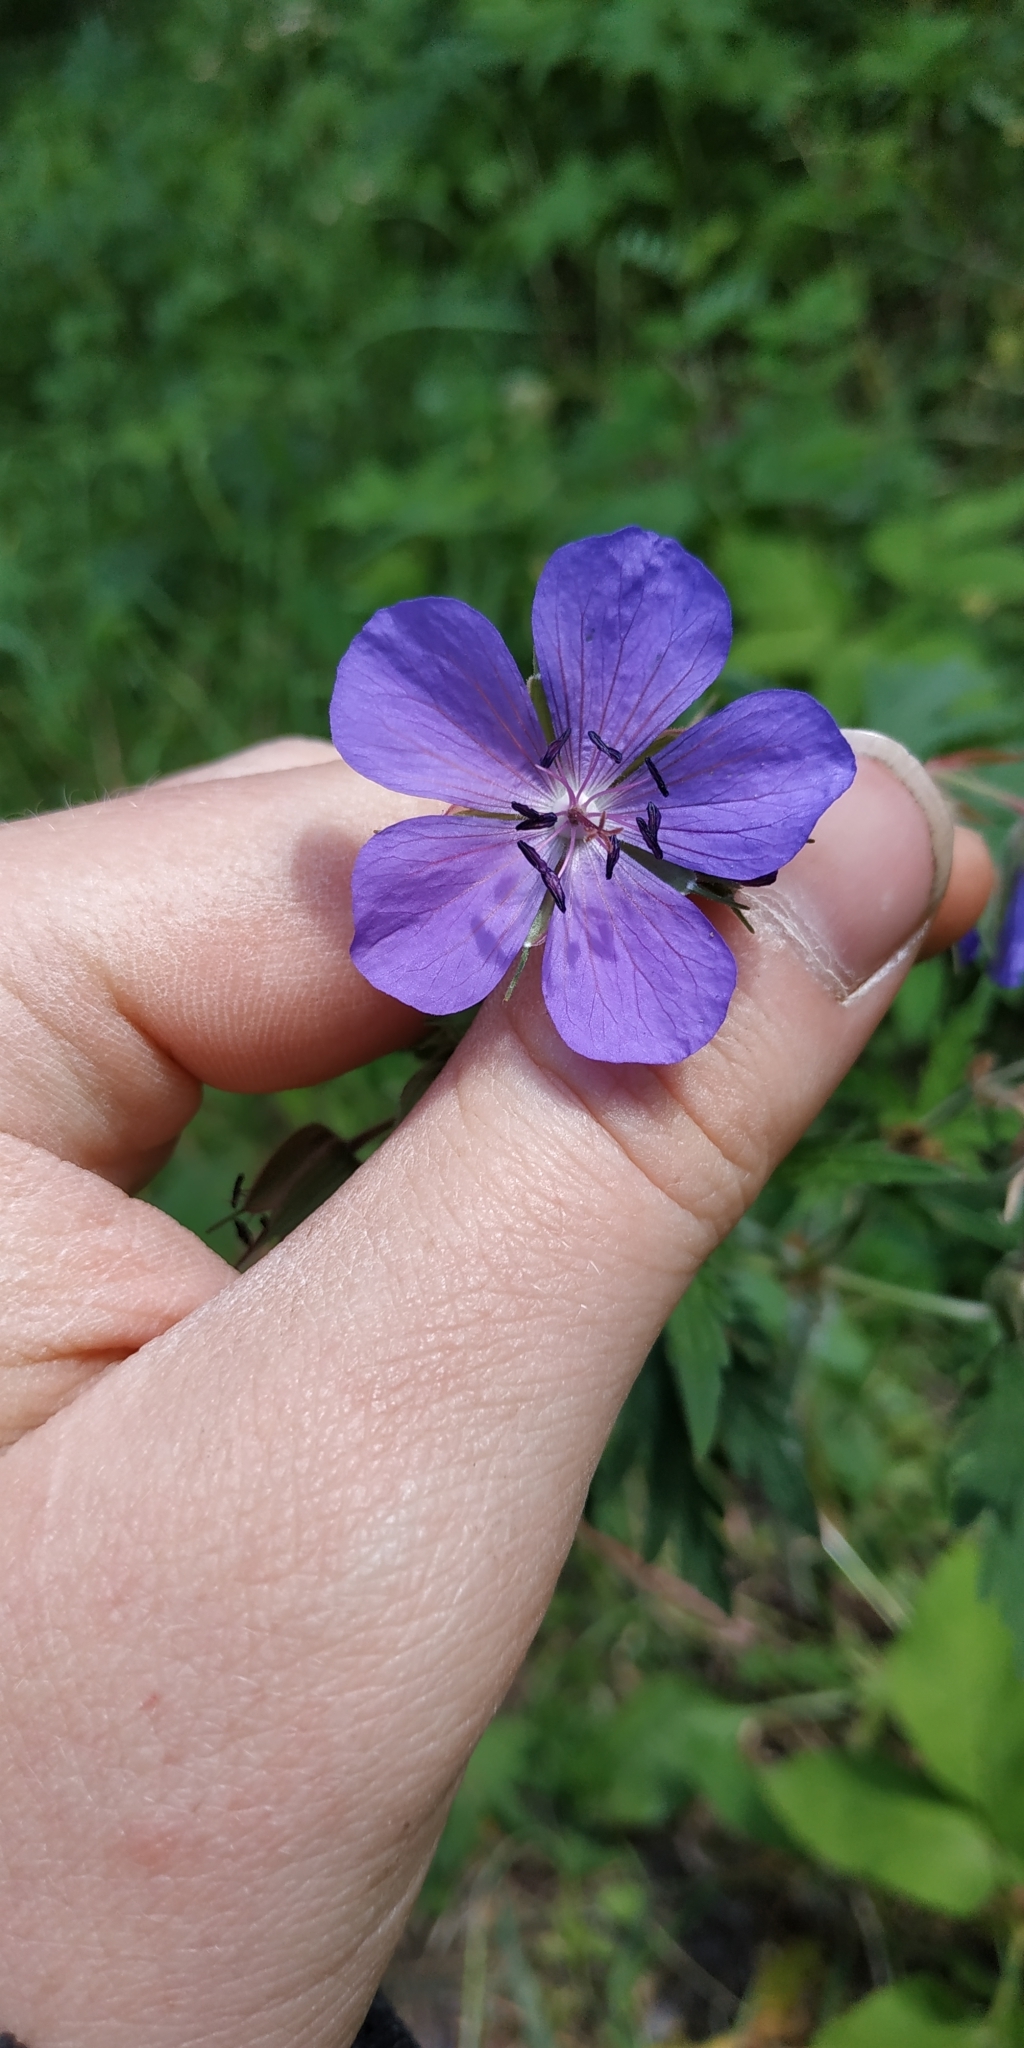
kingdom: Plantae
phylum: Tracheophyta
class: Magnoliopsida
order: Geraniales
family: Geraniaceae
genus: Geranium
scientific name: Geranium pratense
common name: Meadow crane's-bill
